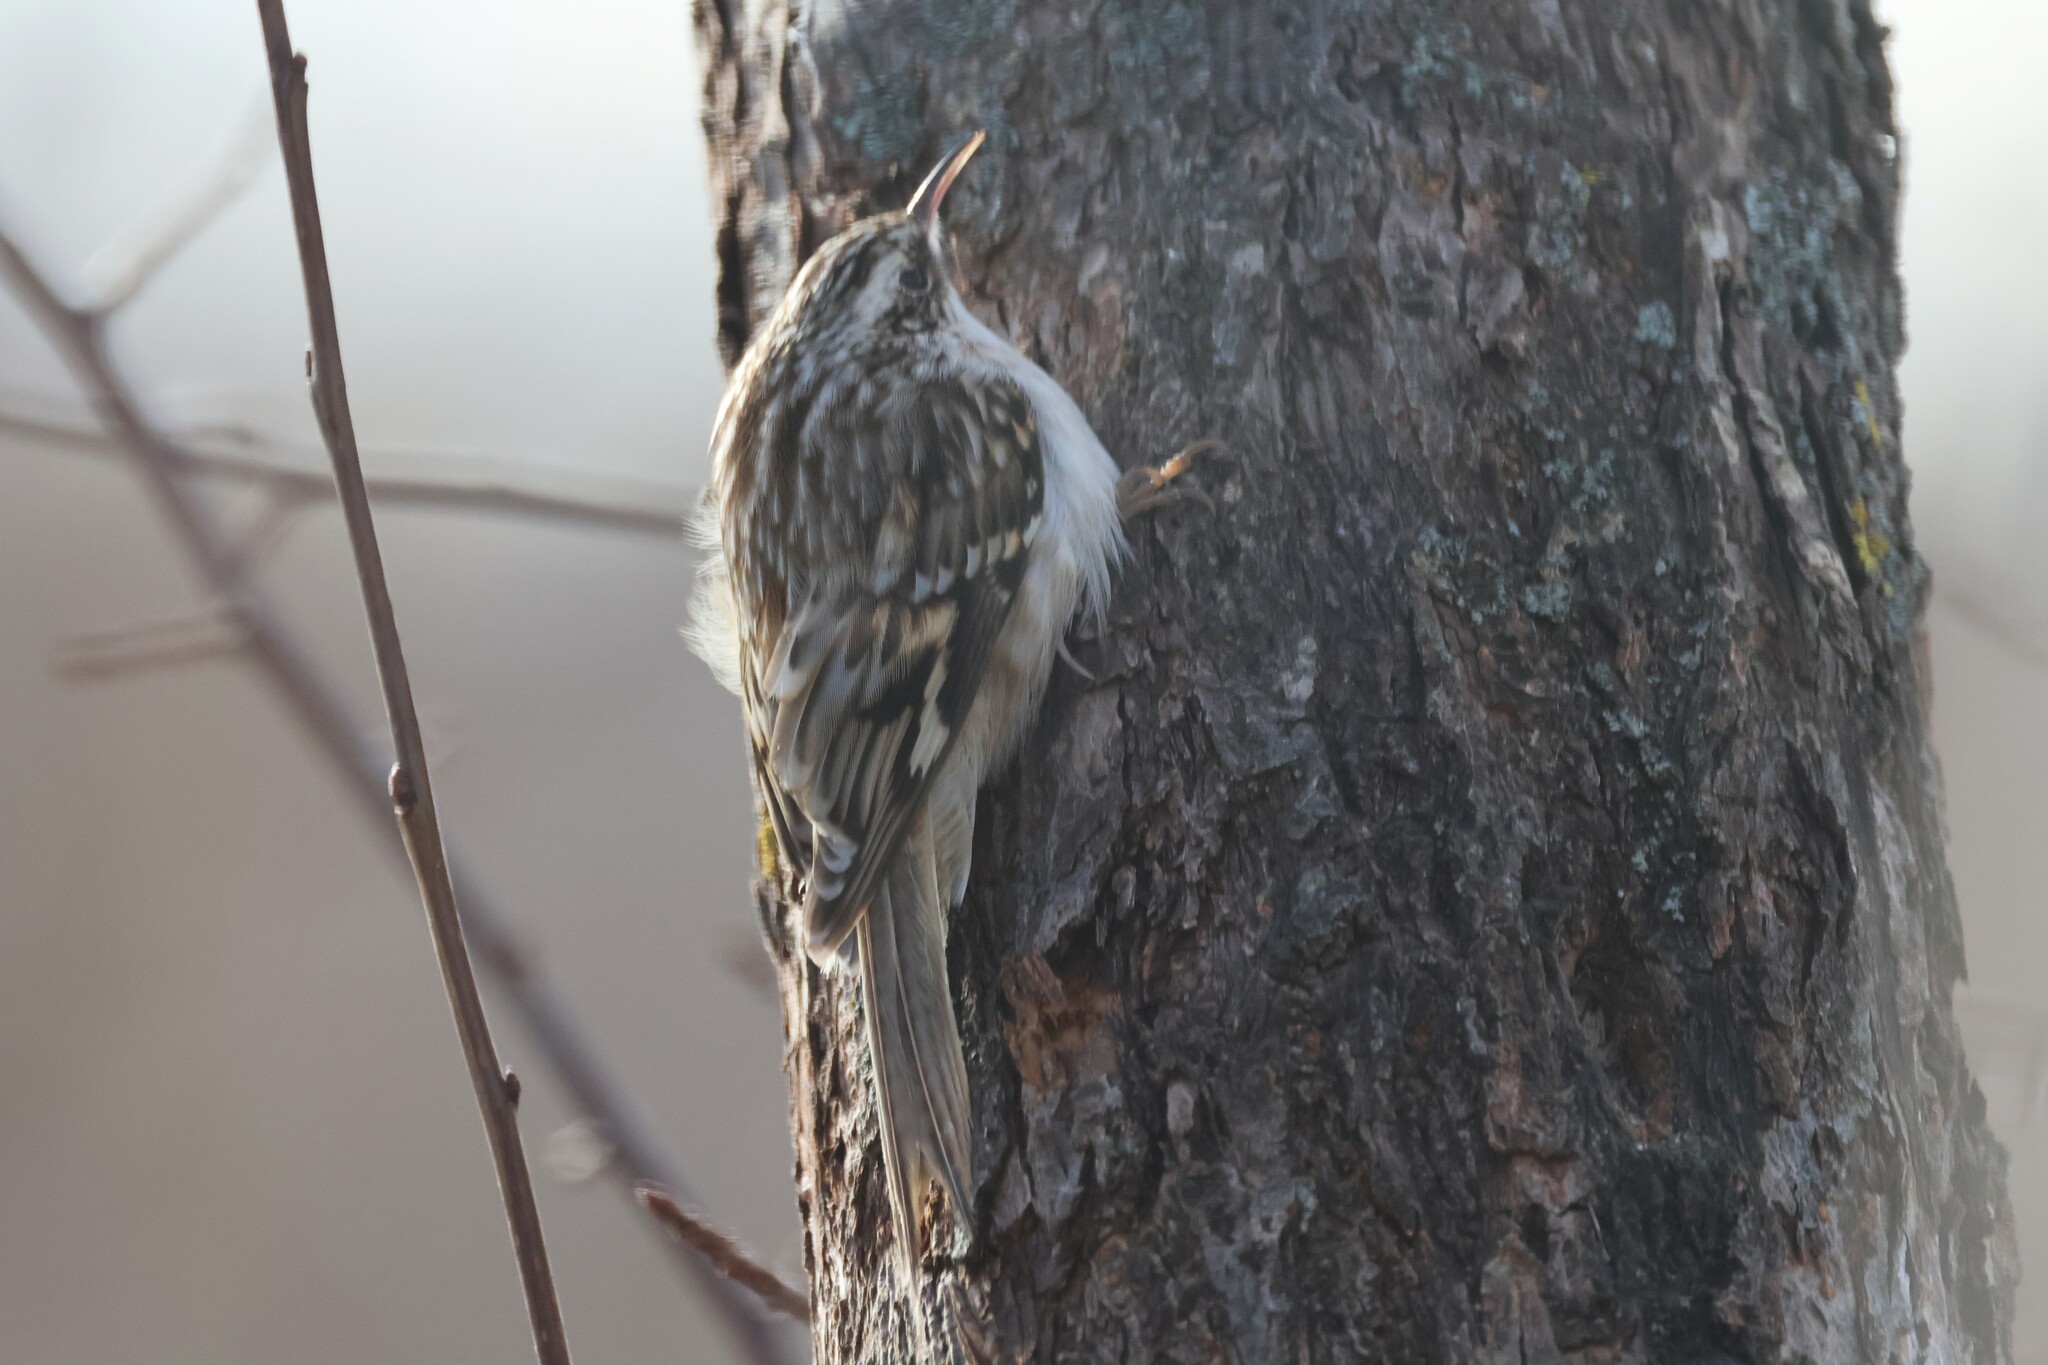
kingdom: Animalia
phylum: Chordata
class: Aves
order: Passeriformes
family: Certhiidae
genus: Certhia
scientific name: Certhia americana
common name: Brown creeper
